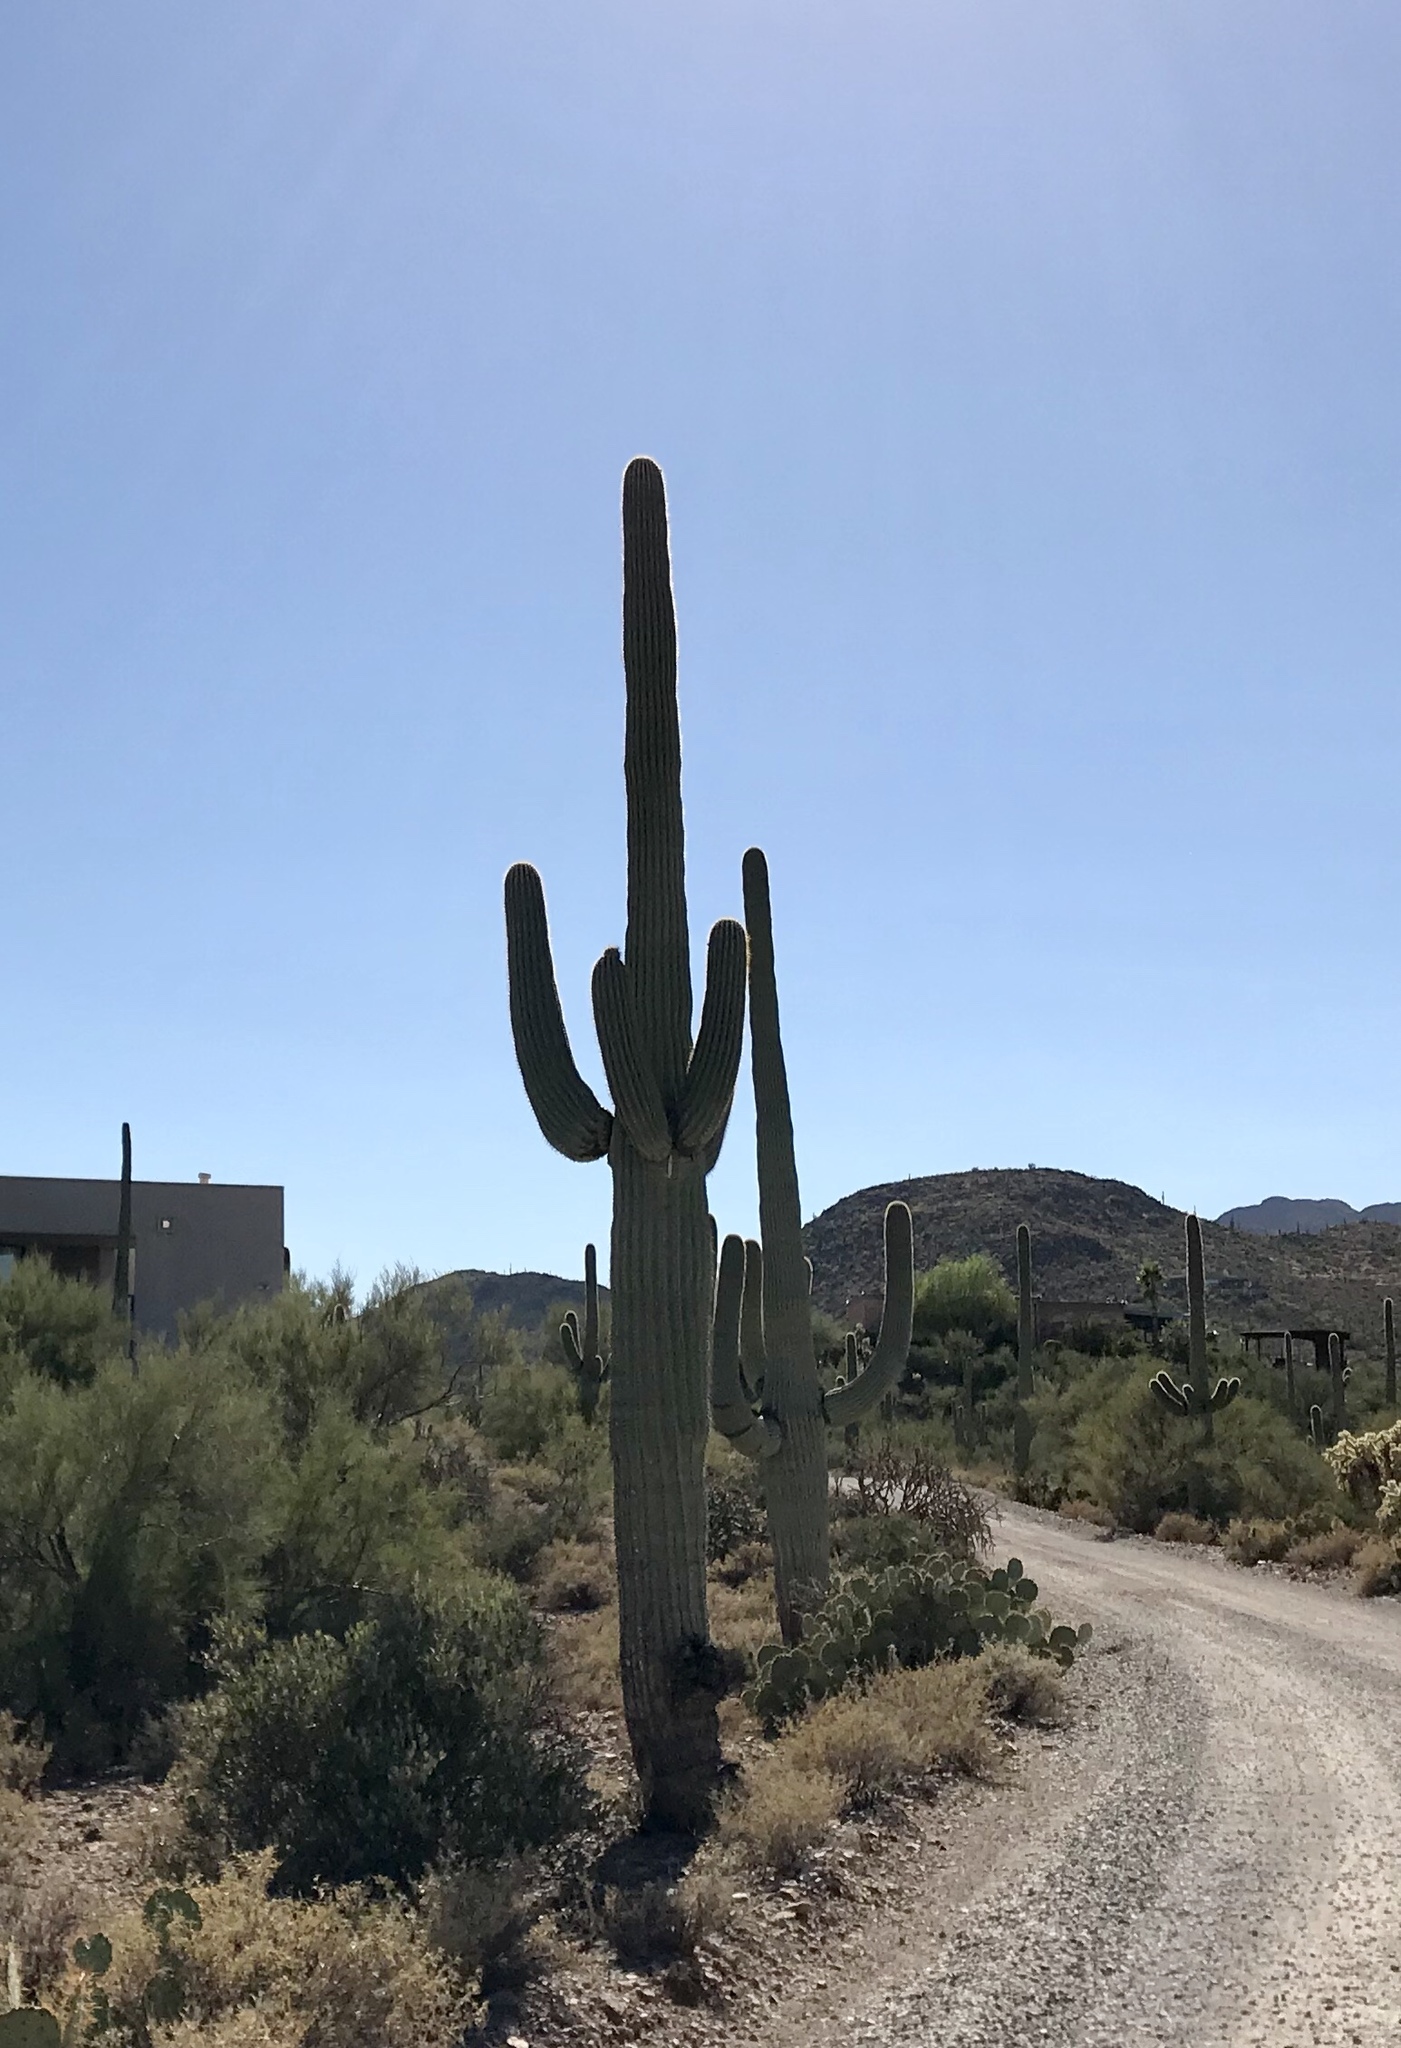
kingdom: Plantae
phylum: Tracheophyta
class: Magnoliopsida
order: Caryophyllales
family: Cactaceae
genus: Carnegiea
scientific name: Carnegiea gigantea
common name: Saguaro
